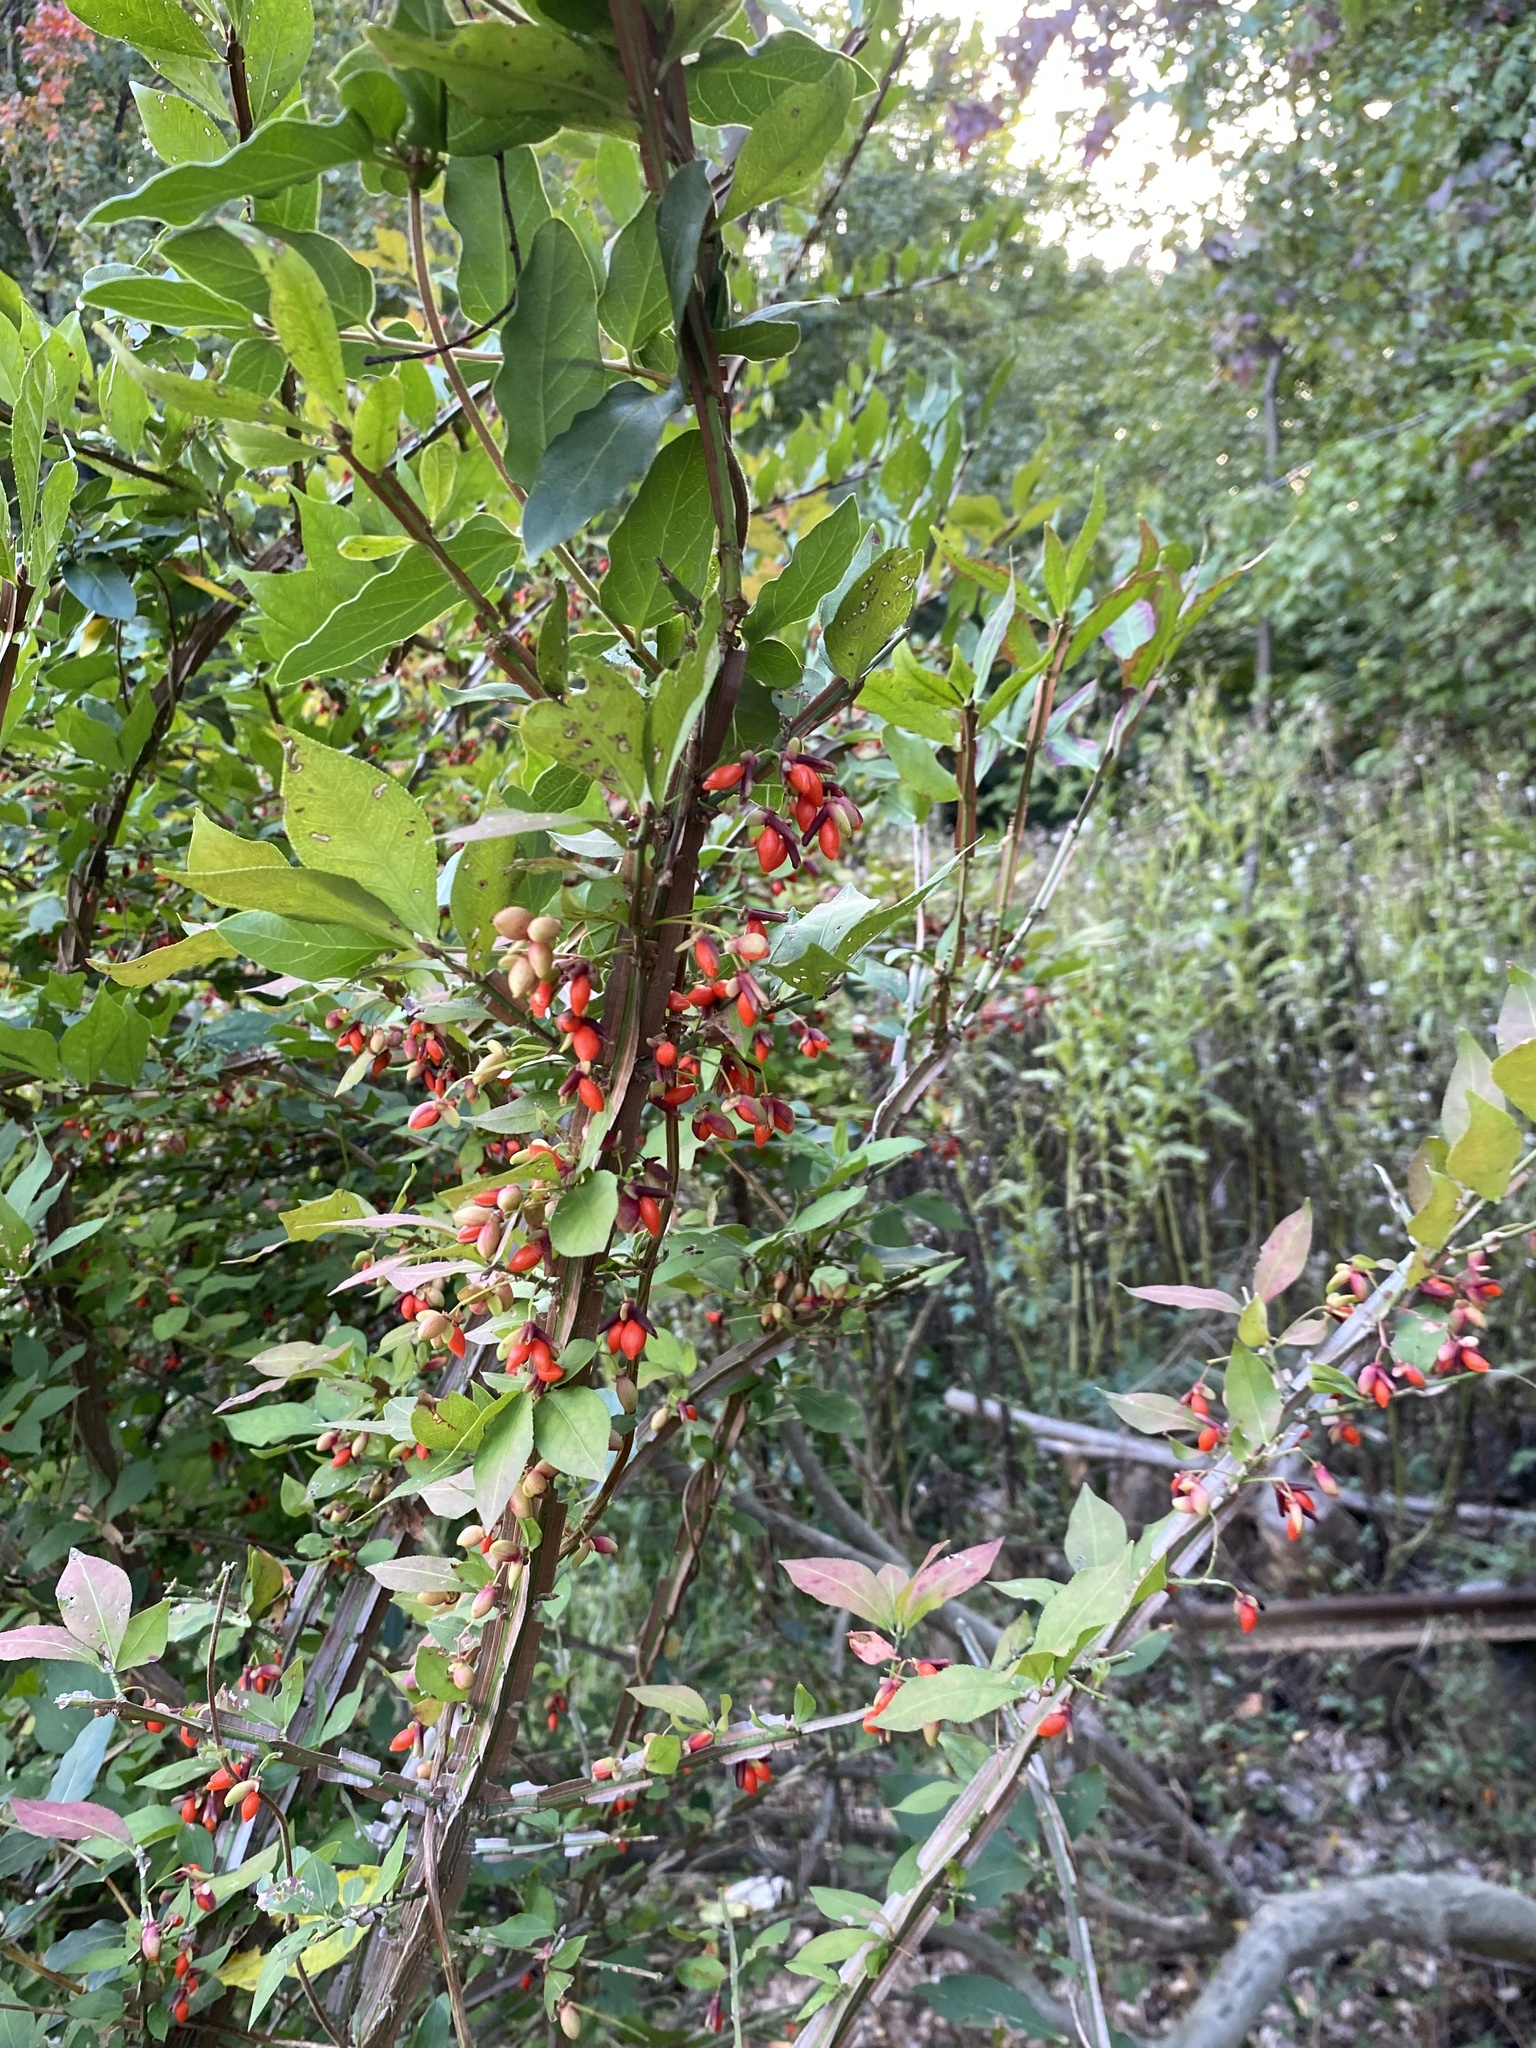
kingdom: Plantae
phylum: Tracheophyta
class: Magnoliopsida
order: Celastrales
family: Celastraceae
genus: Euonymus
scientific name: Euonymus alatus
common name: Winged euonymus
